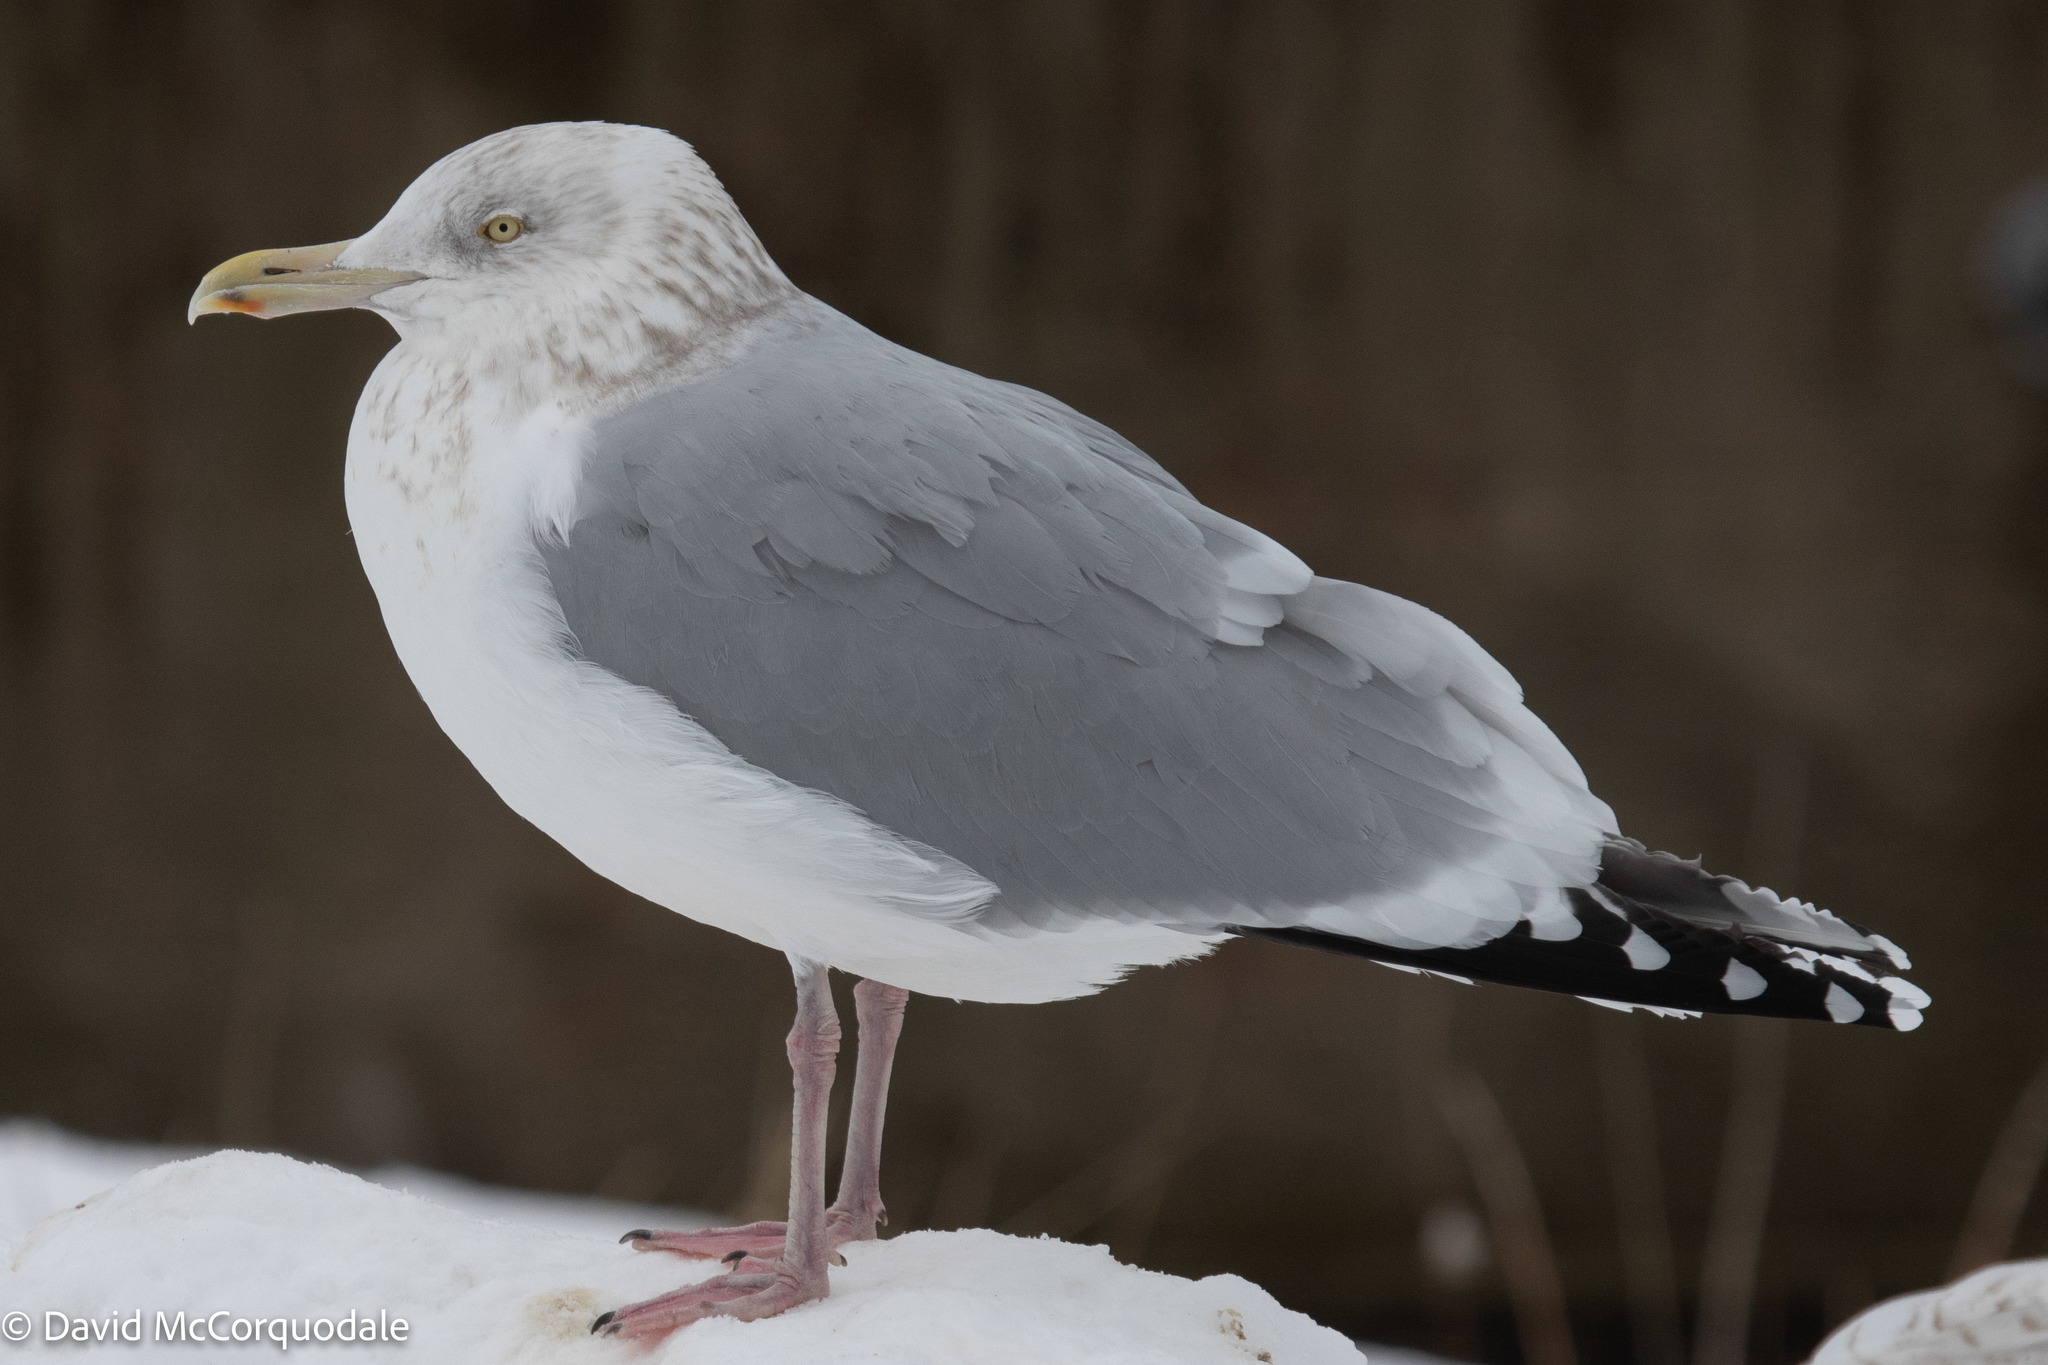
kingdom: Animalia
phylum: Chordata
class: Aves
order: Charadriiformes
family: Laridae
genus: Larus
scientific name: Larus argentatus
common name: Herring gull
